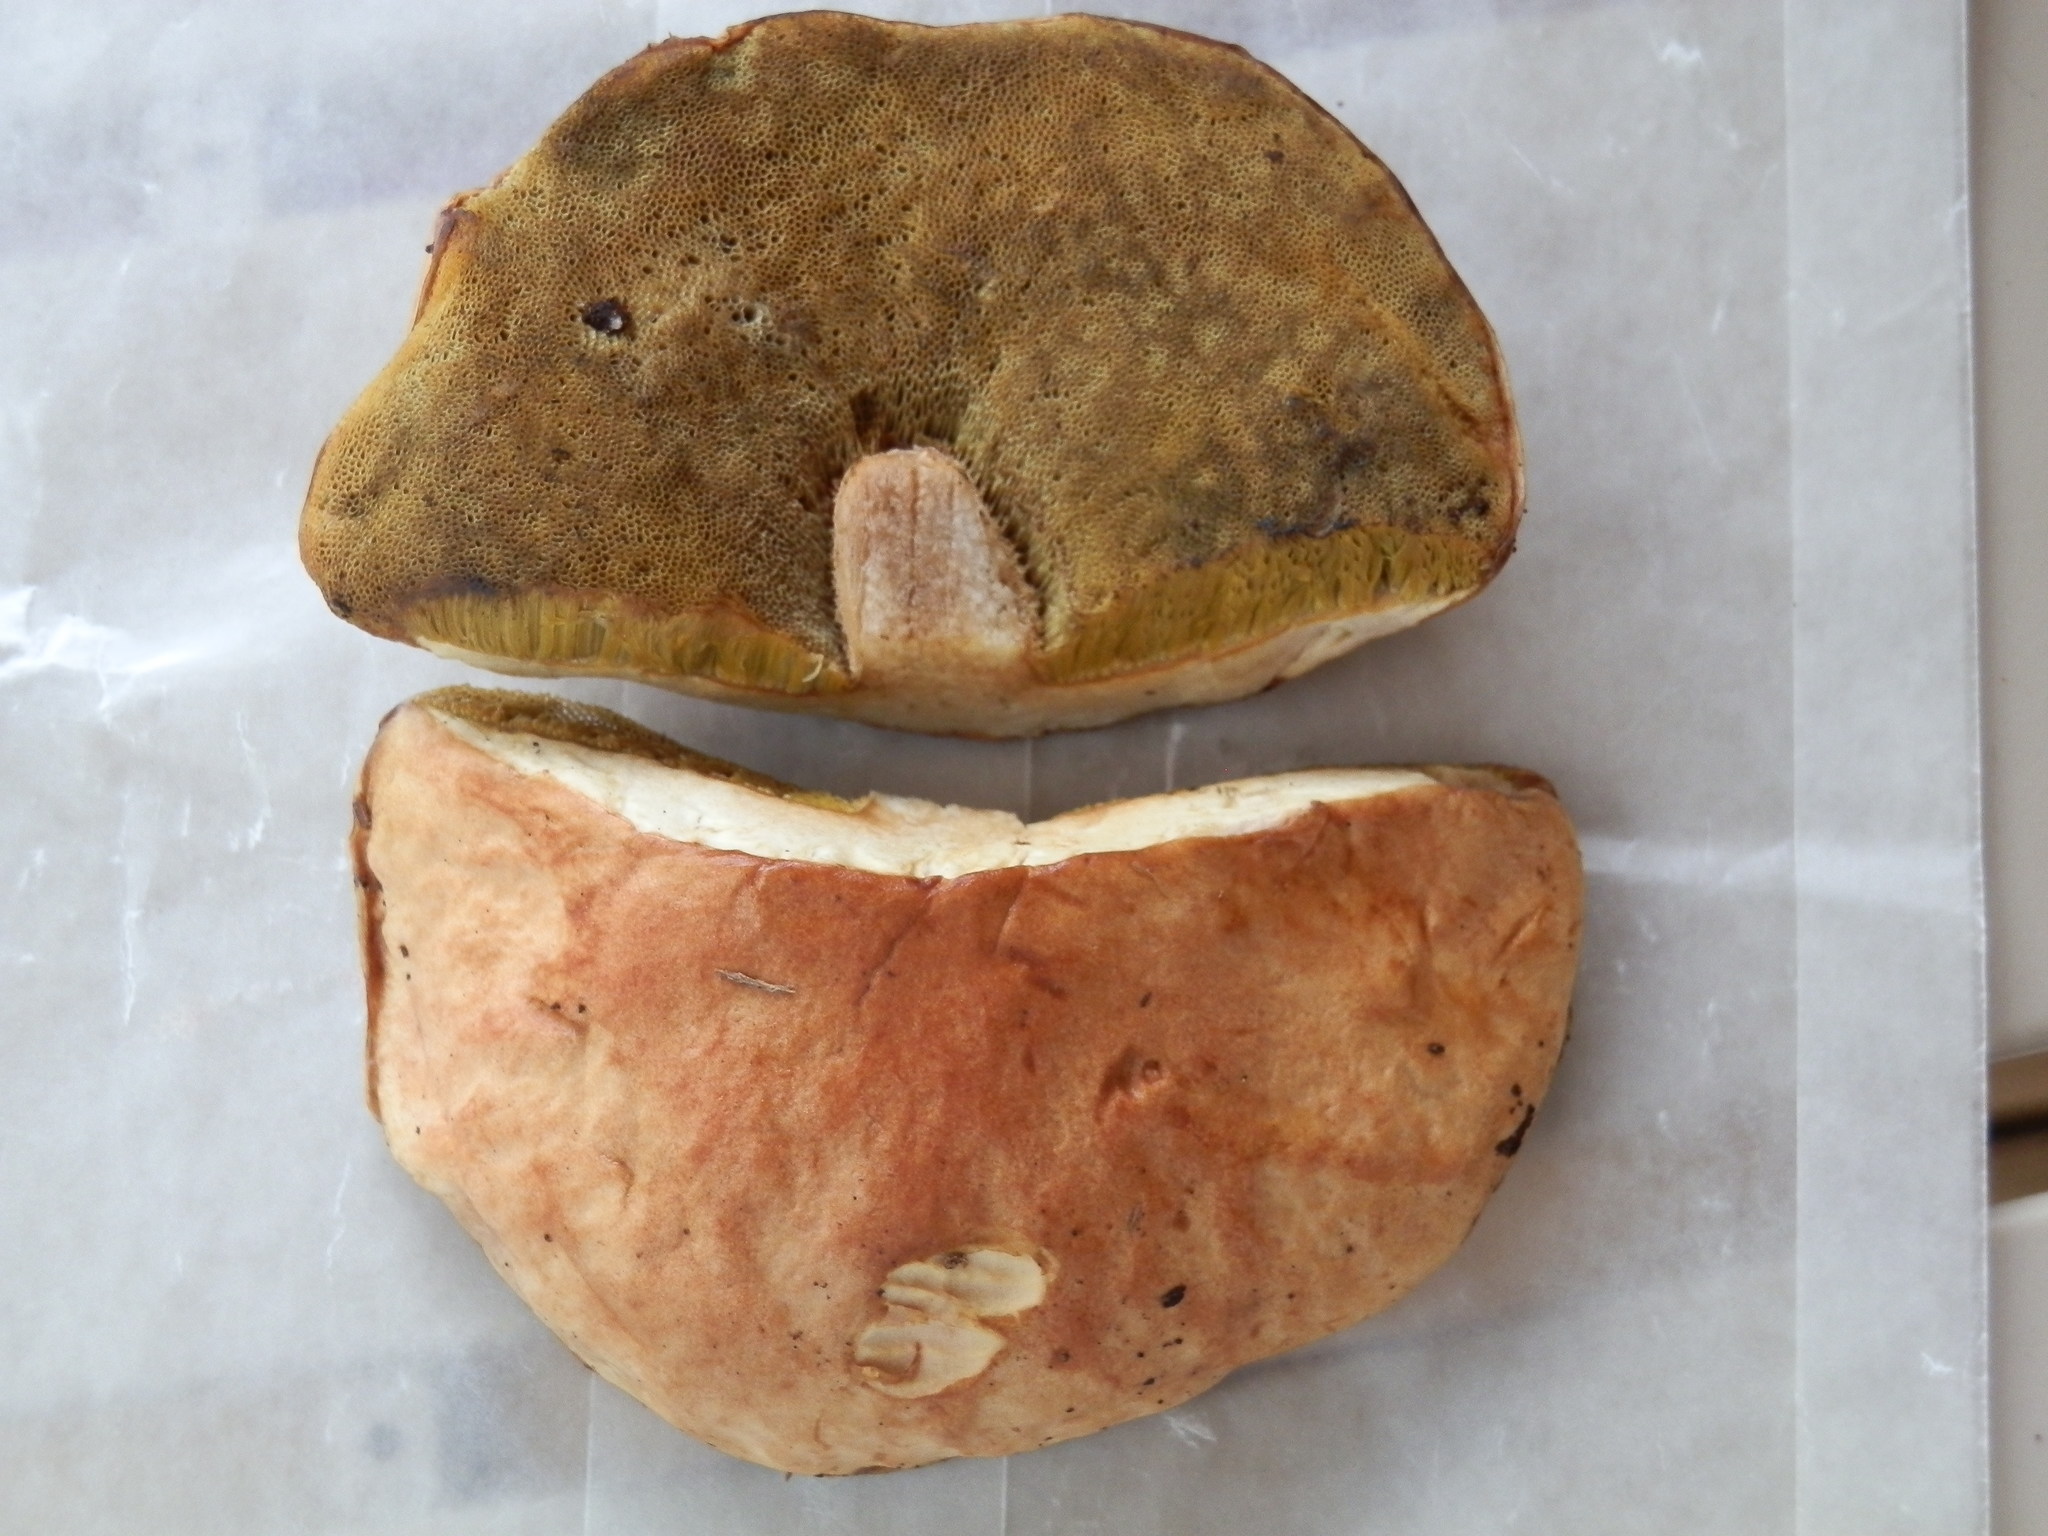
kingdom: Fungi
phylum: Basidiomycota
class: Agaricomycetes
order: Boletales
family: Boletaceae
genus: Boletus
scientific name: Boletus edulis
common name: Cep
